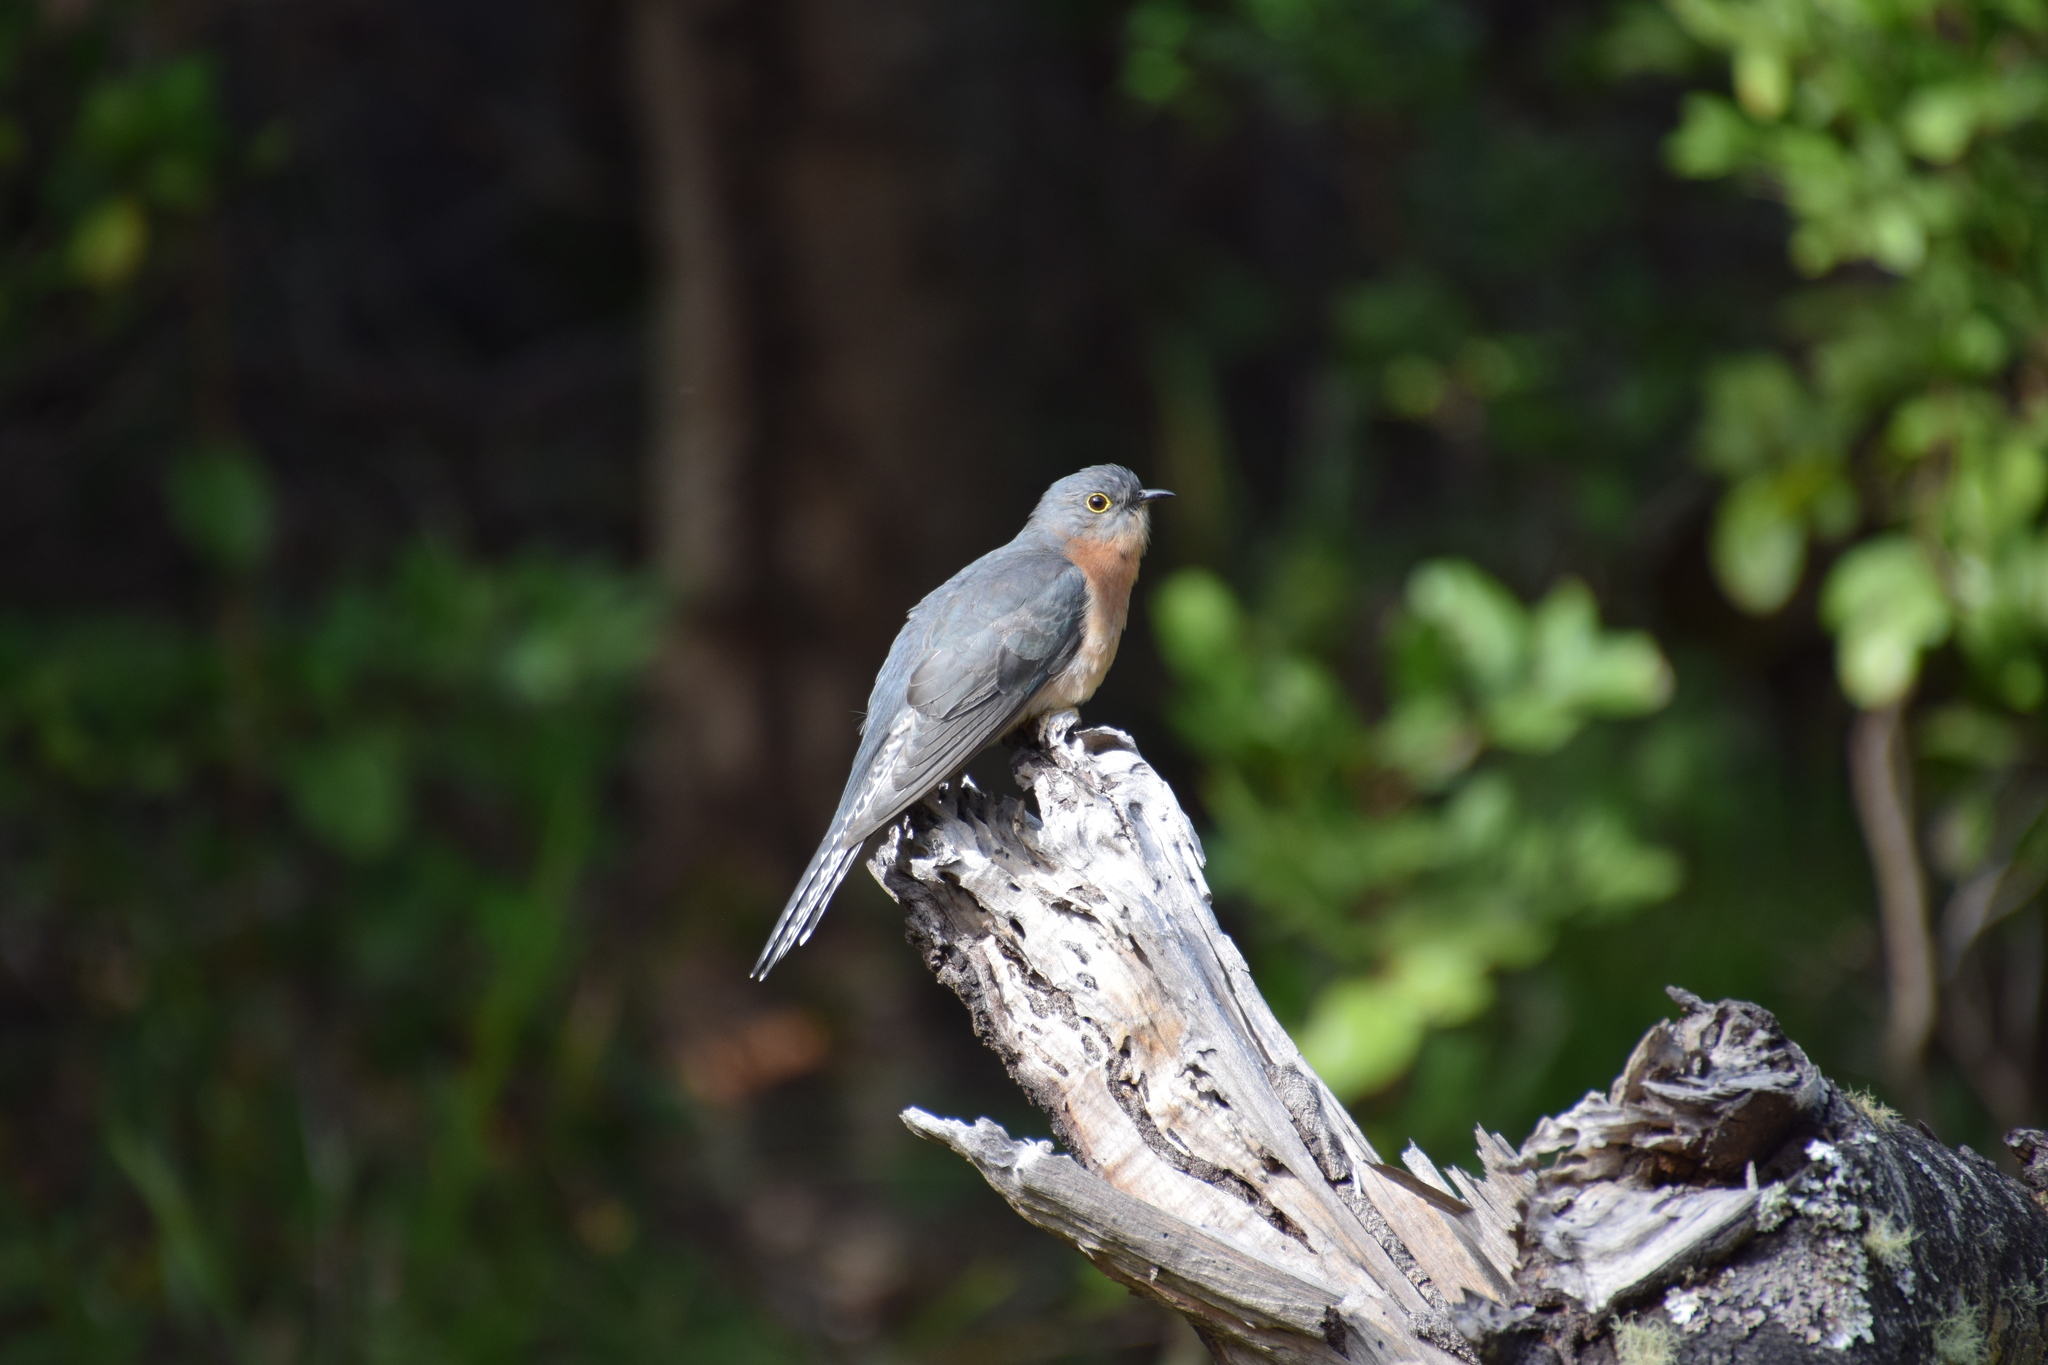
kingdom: Animalia
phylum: Chordata
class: Aves
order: Cuculiformes
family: Cuculidae
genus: Cacomantis
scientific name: Cacomantis flabelliformis
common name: Fan-tailed cuckoo
